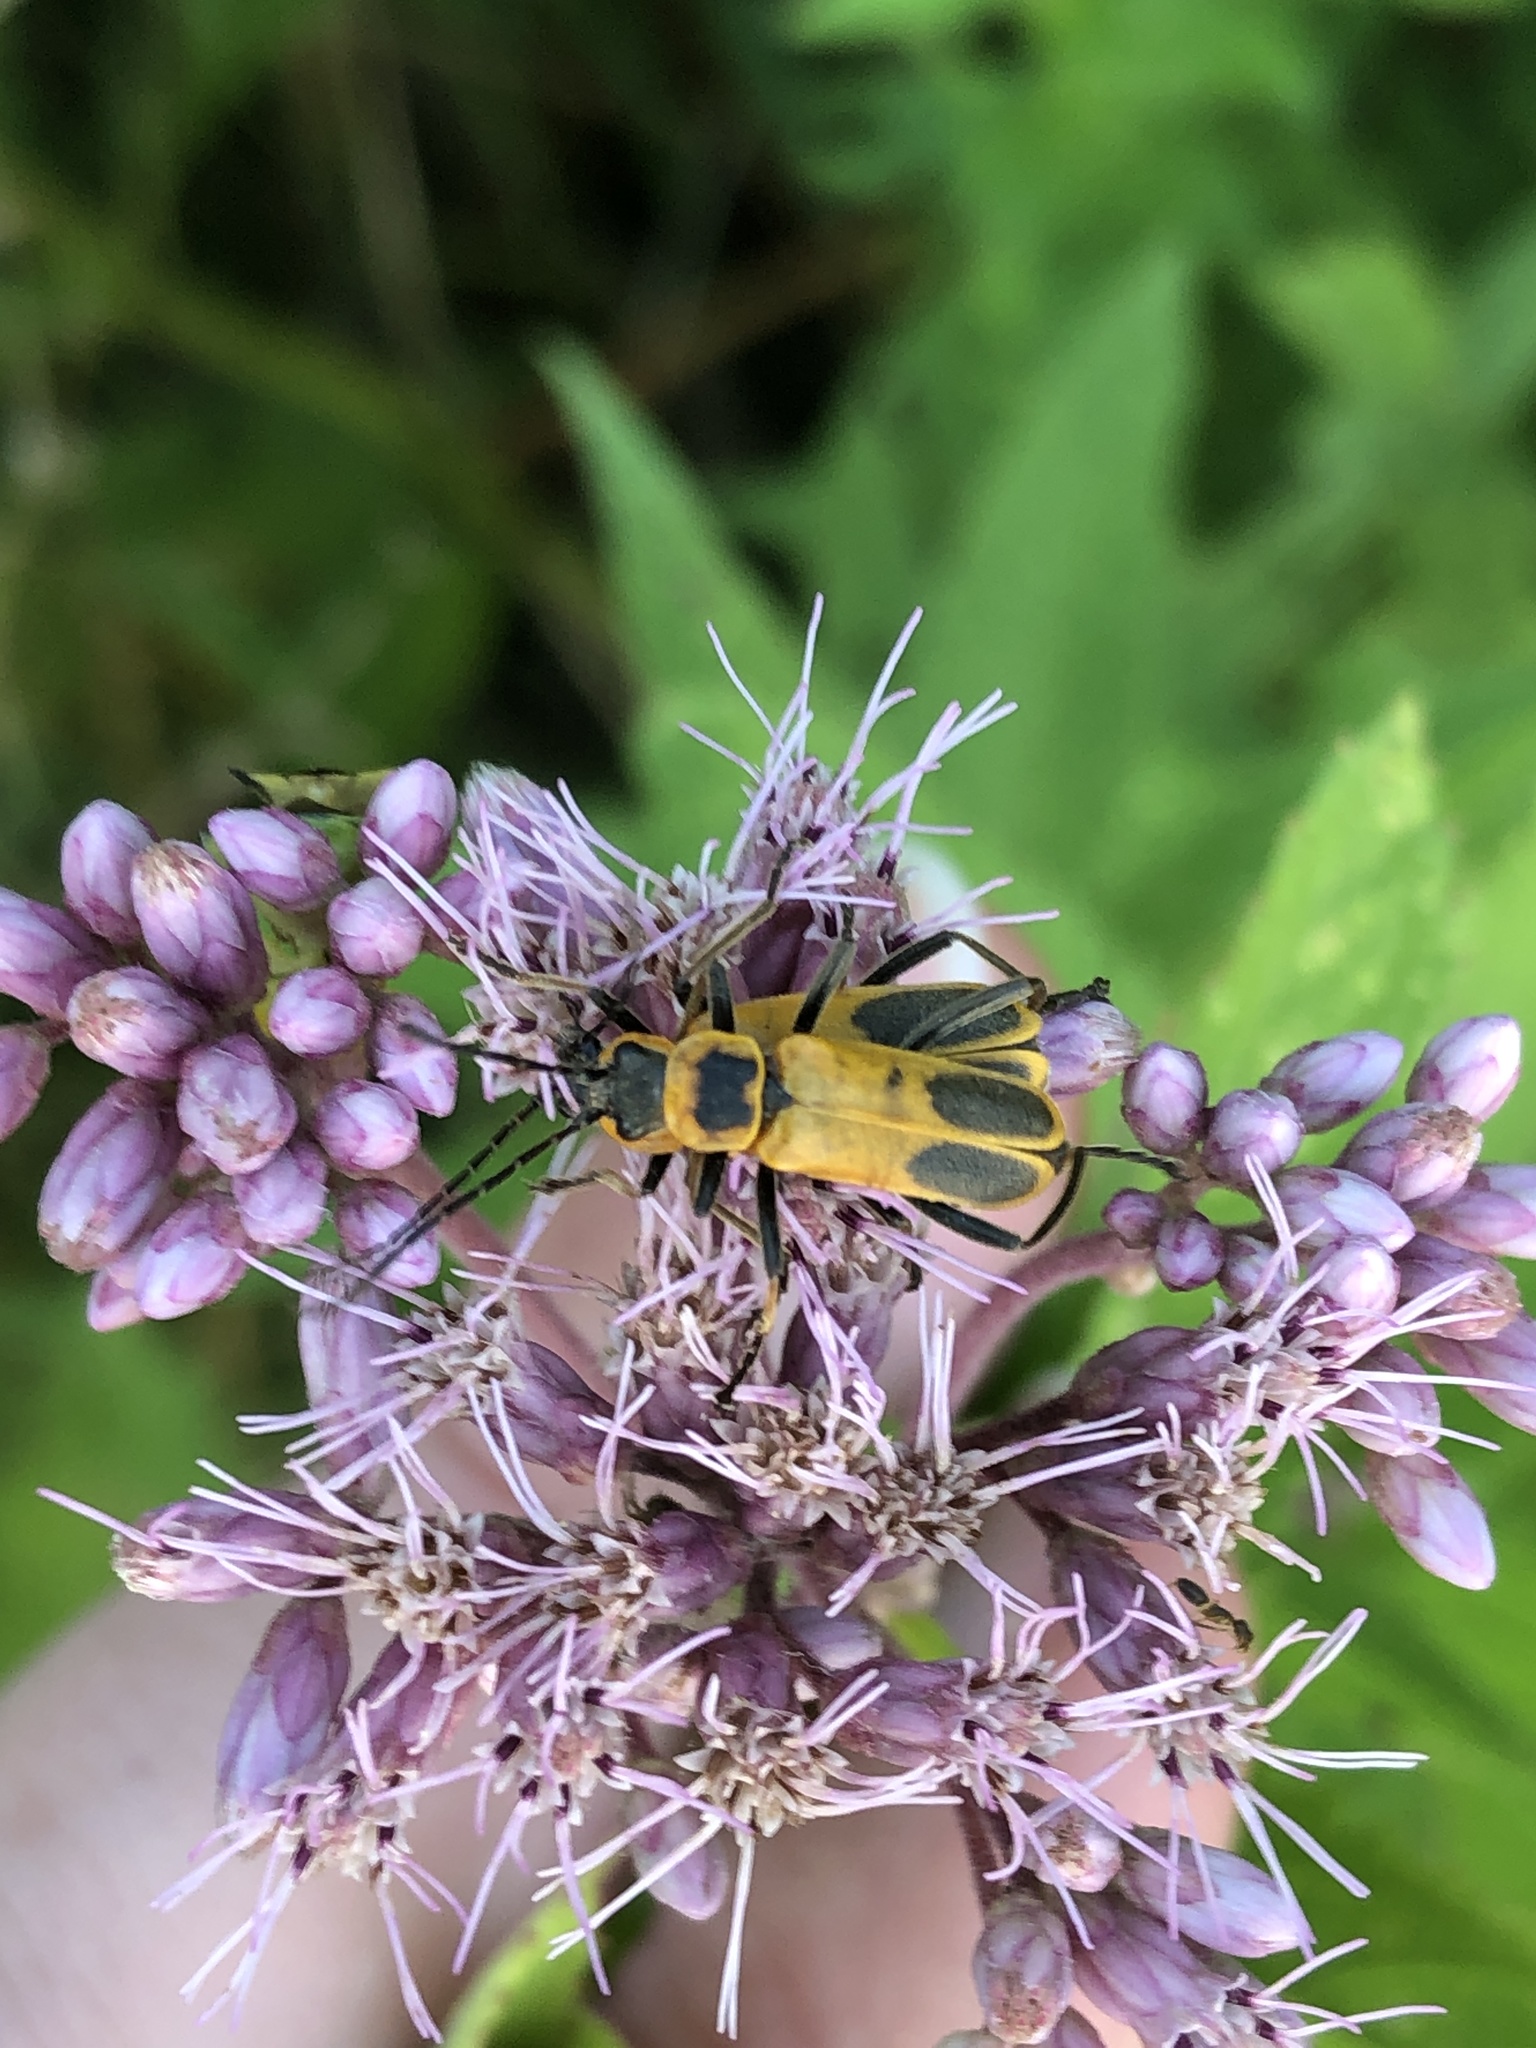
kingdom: Animalia
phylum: Arthropoda
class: Insecta
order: Coleoptera
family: Cantharidae
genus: Chauliognathus
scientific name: Chauliognathus pensylvanicus
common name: Goldenrod soldier beetle
